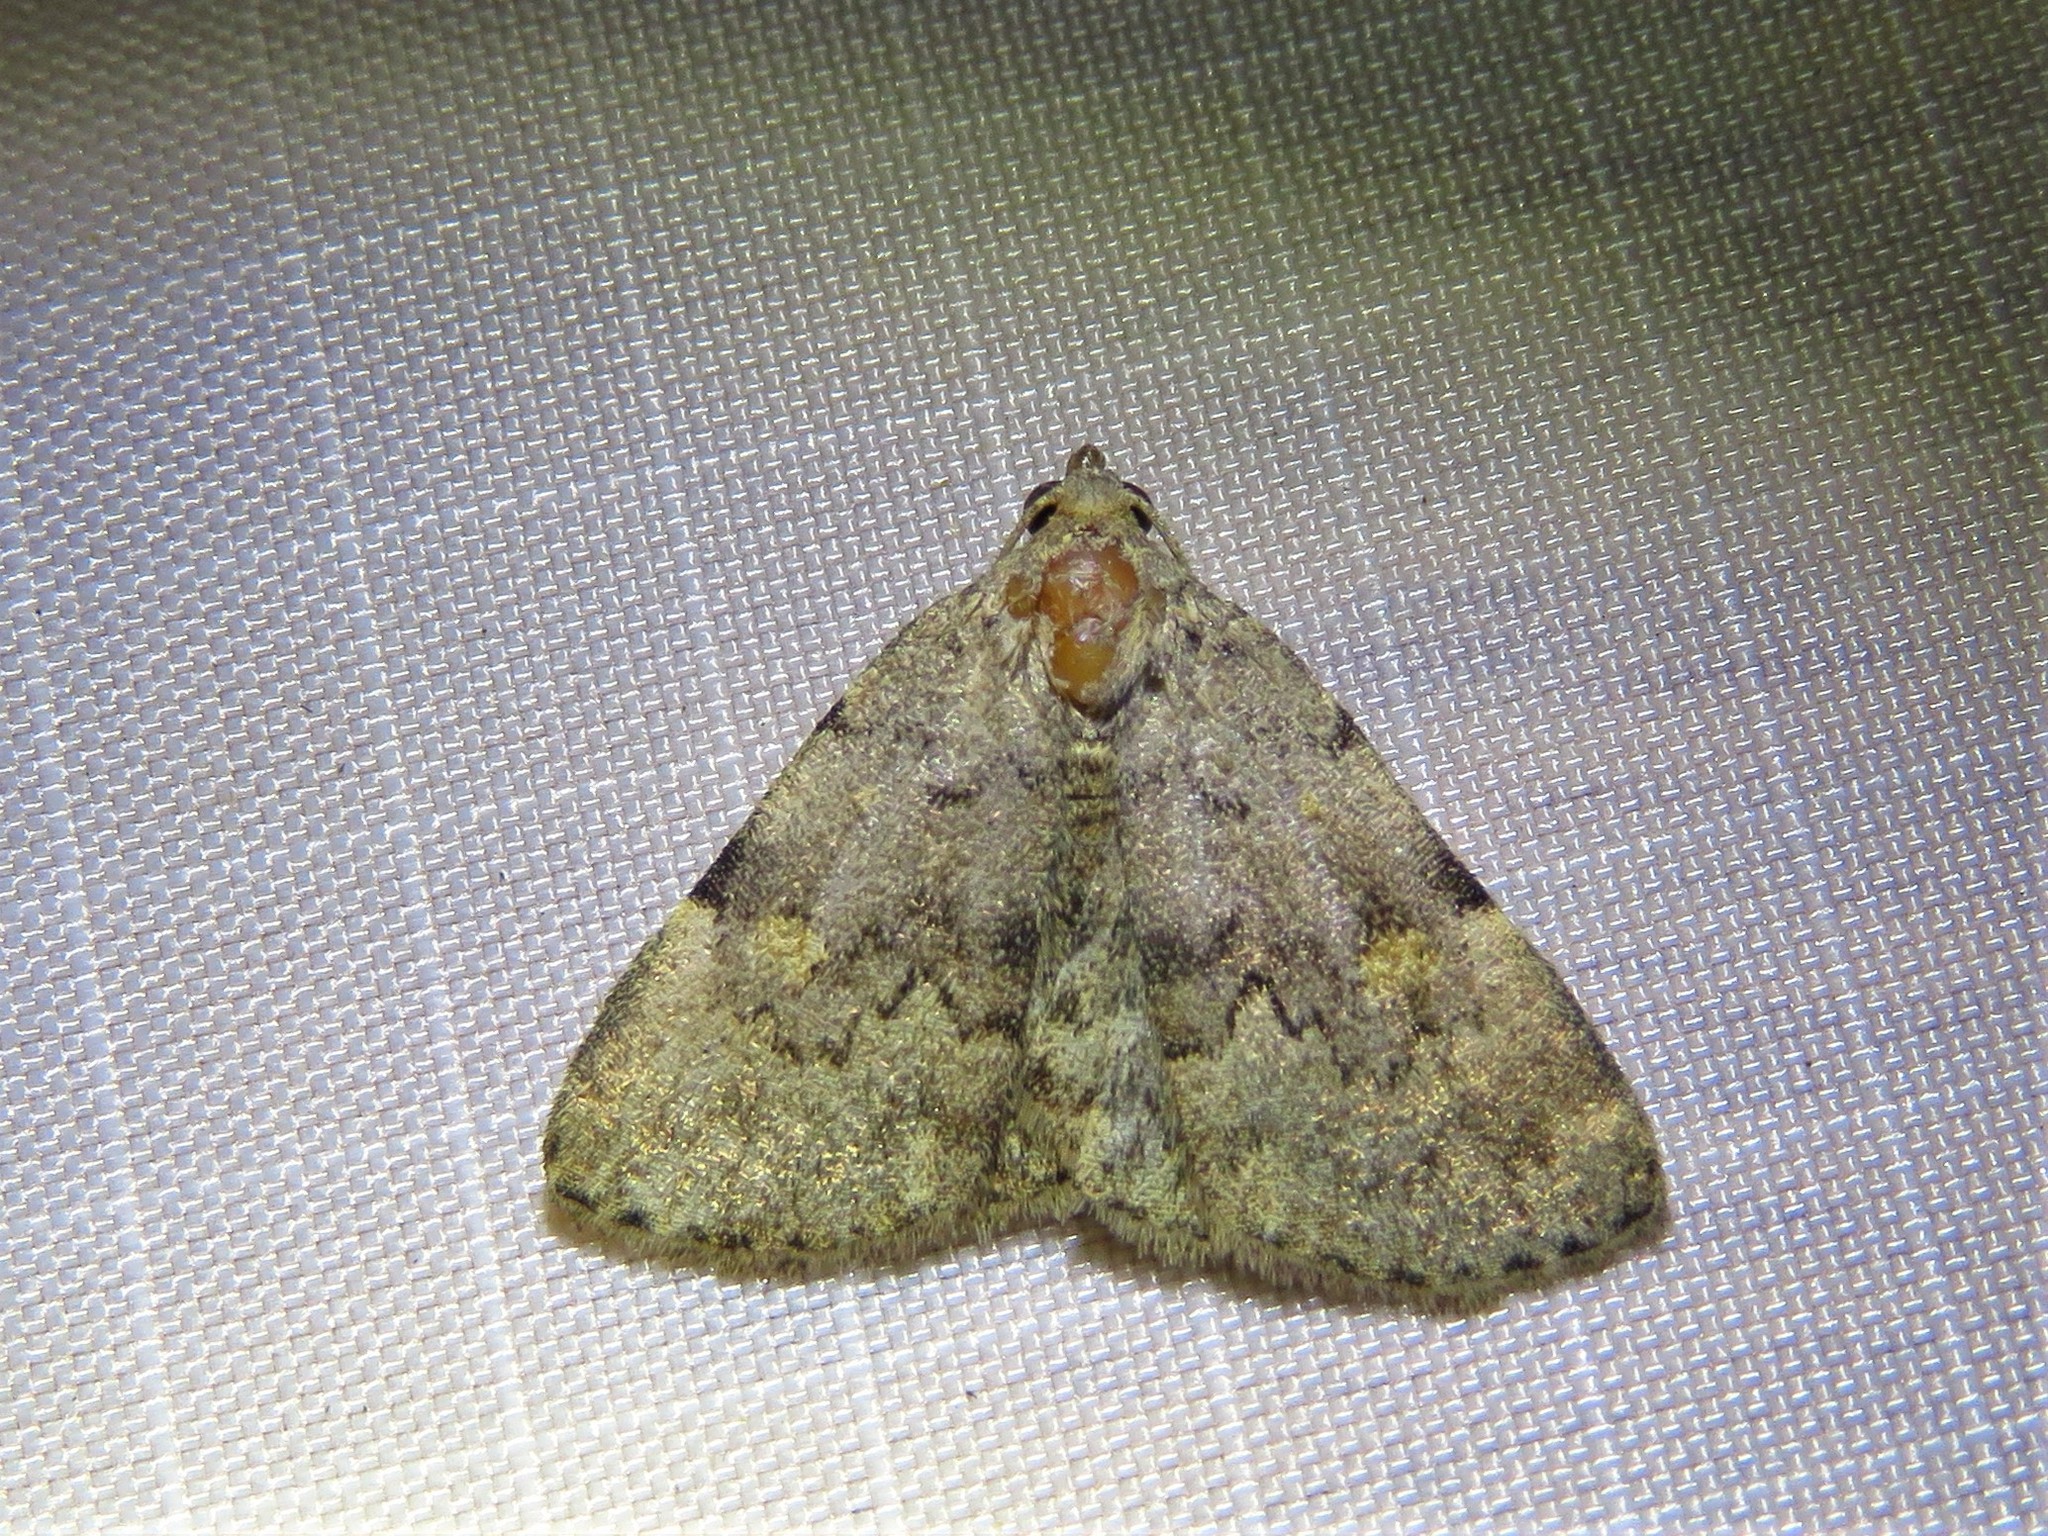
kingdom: Animalia
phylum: Arthropoda
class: Insecta
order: Lepidoptera
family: Erebidae
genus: Idia
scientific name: Idia aemula
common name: Common idia moth
